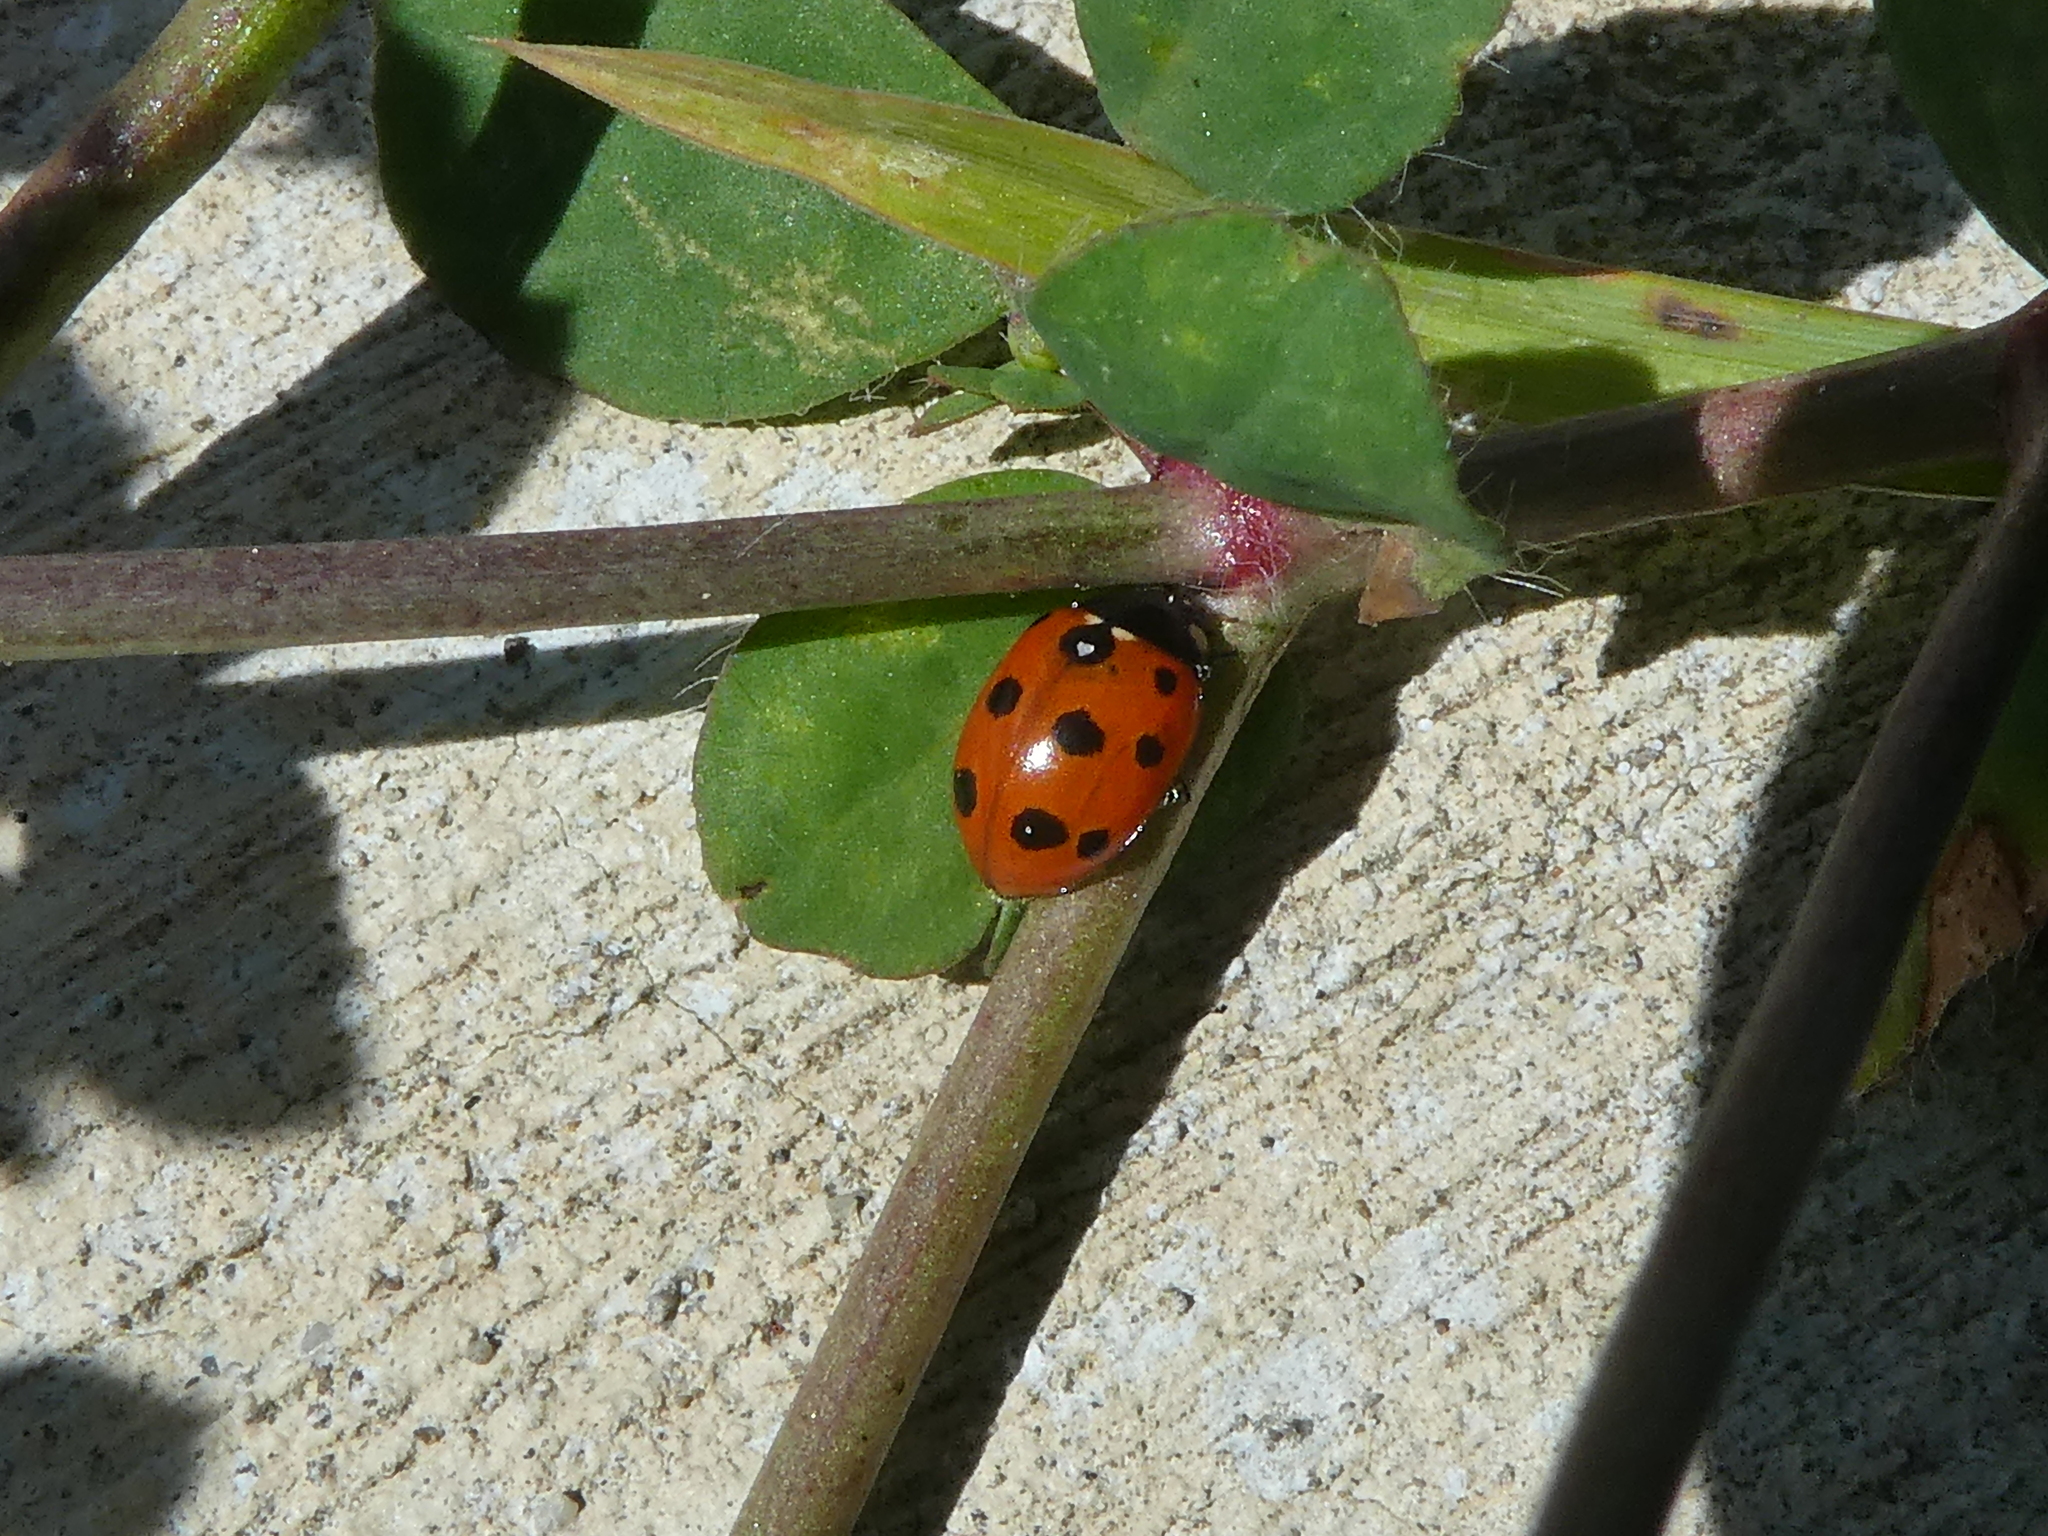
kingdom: Animalia
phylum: Arthropoda
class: Insecta
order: Coleoptera
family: Coccinellidae
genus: Coccinella
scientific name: Coccinella undecimpunctata
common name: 11-spot ladybird
